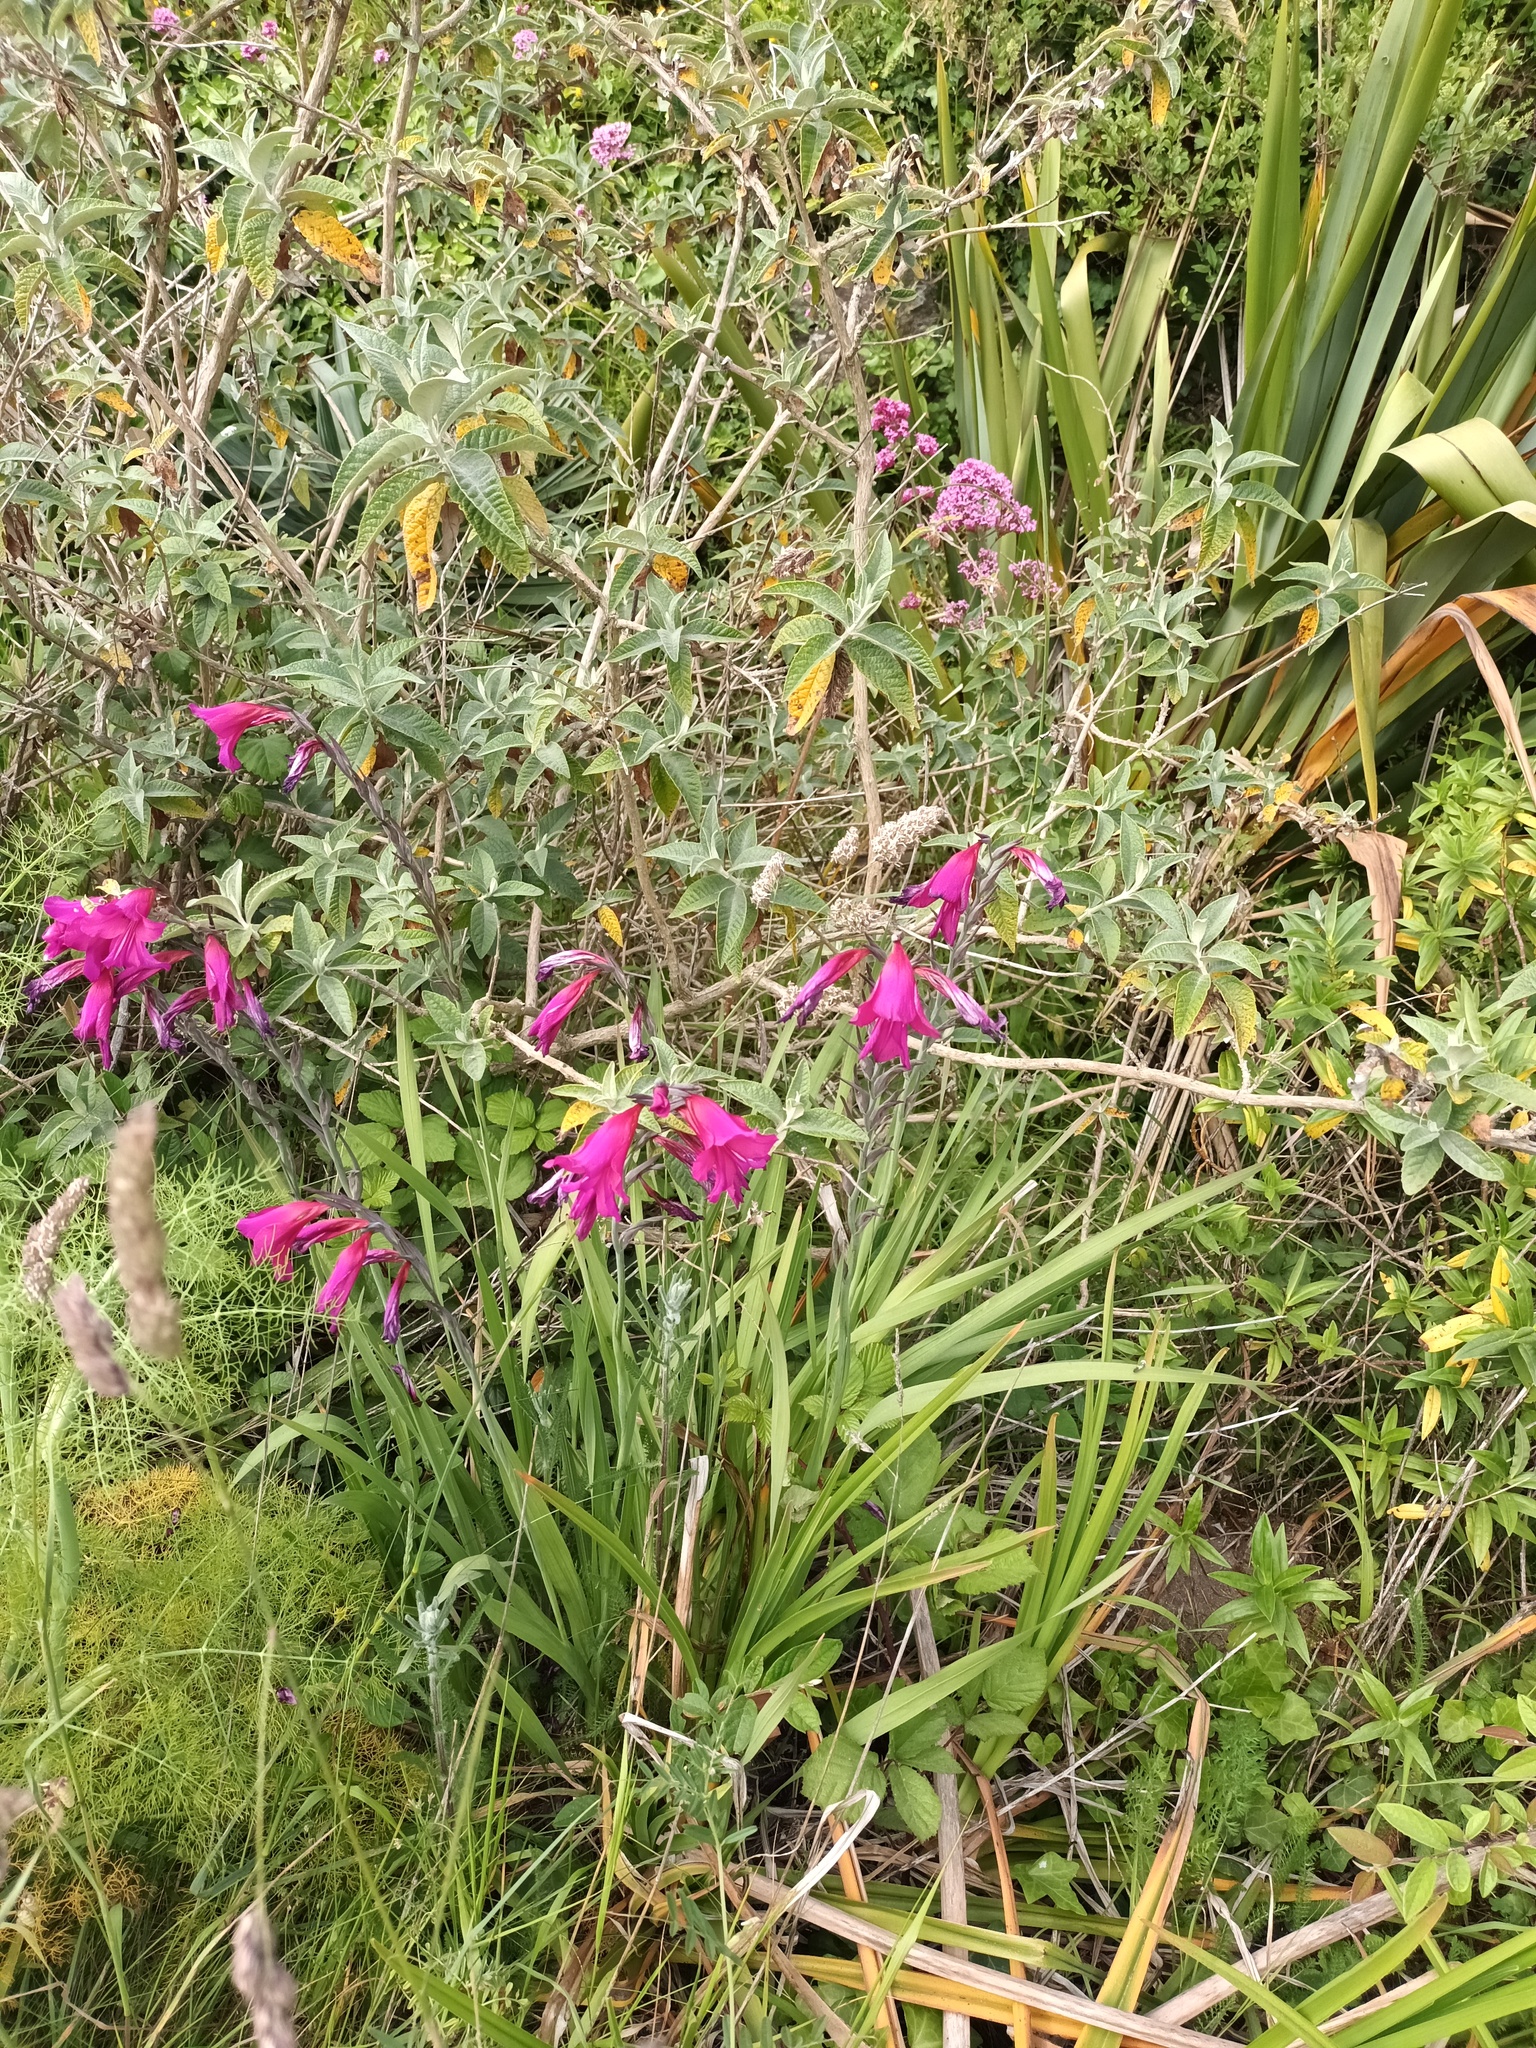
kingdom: Plantae
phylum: Tracheophyta
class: Liliopsida
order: Asparagales
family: Iridaceae
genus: Gladiolus
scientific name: Gladiolus communis
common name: Eastern gladiolus
